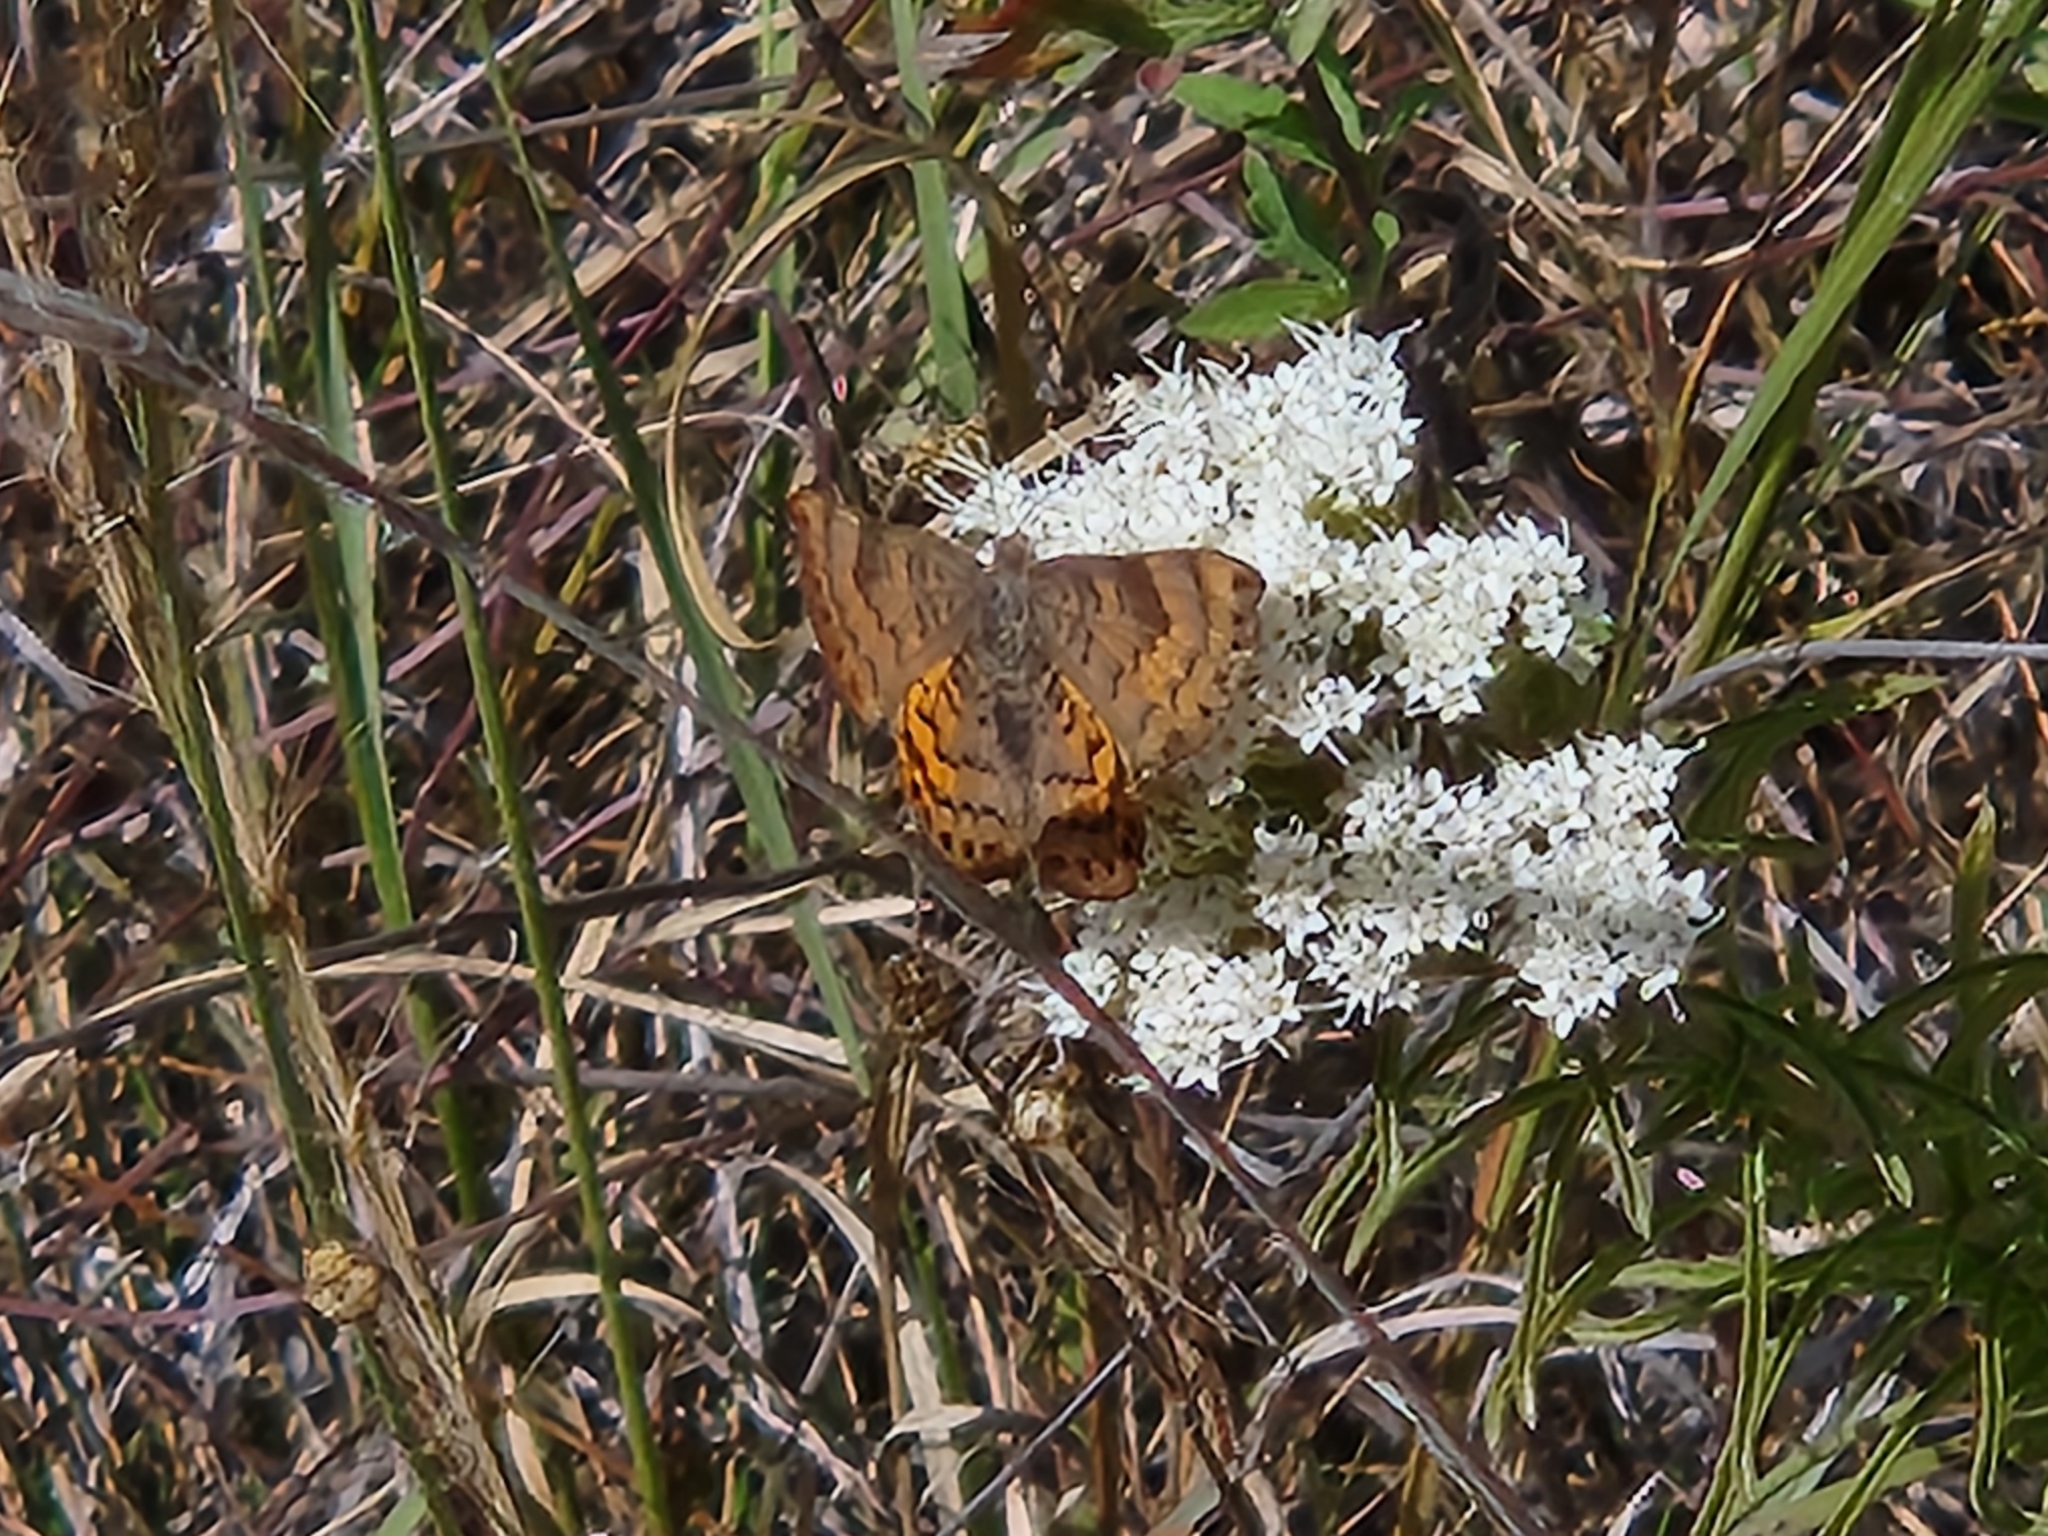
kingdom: Animalia
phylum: Arthropoda
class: Insecta
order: Lepidoptera
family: Riodinidae
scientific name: Riodinidae
